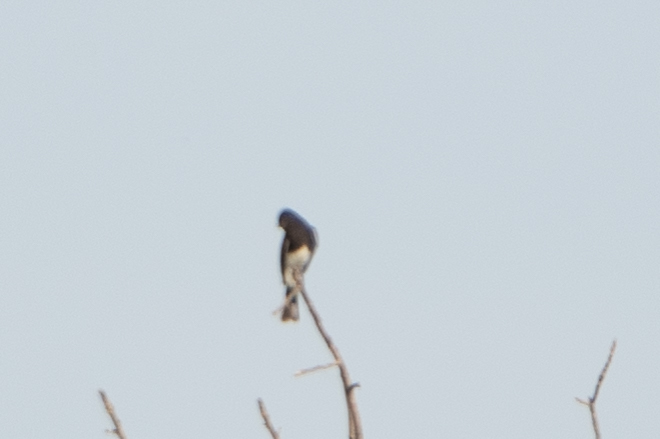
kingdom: Animalia
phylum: Chordata
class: Aves
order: Passeriformes
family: Tyrannidae
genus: Sayornis
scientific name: Sayornis nigricans
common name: Black phoebe
